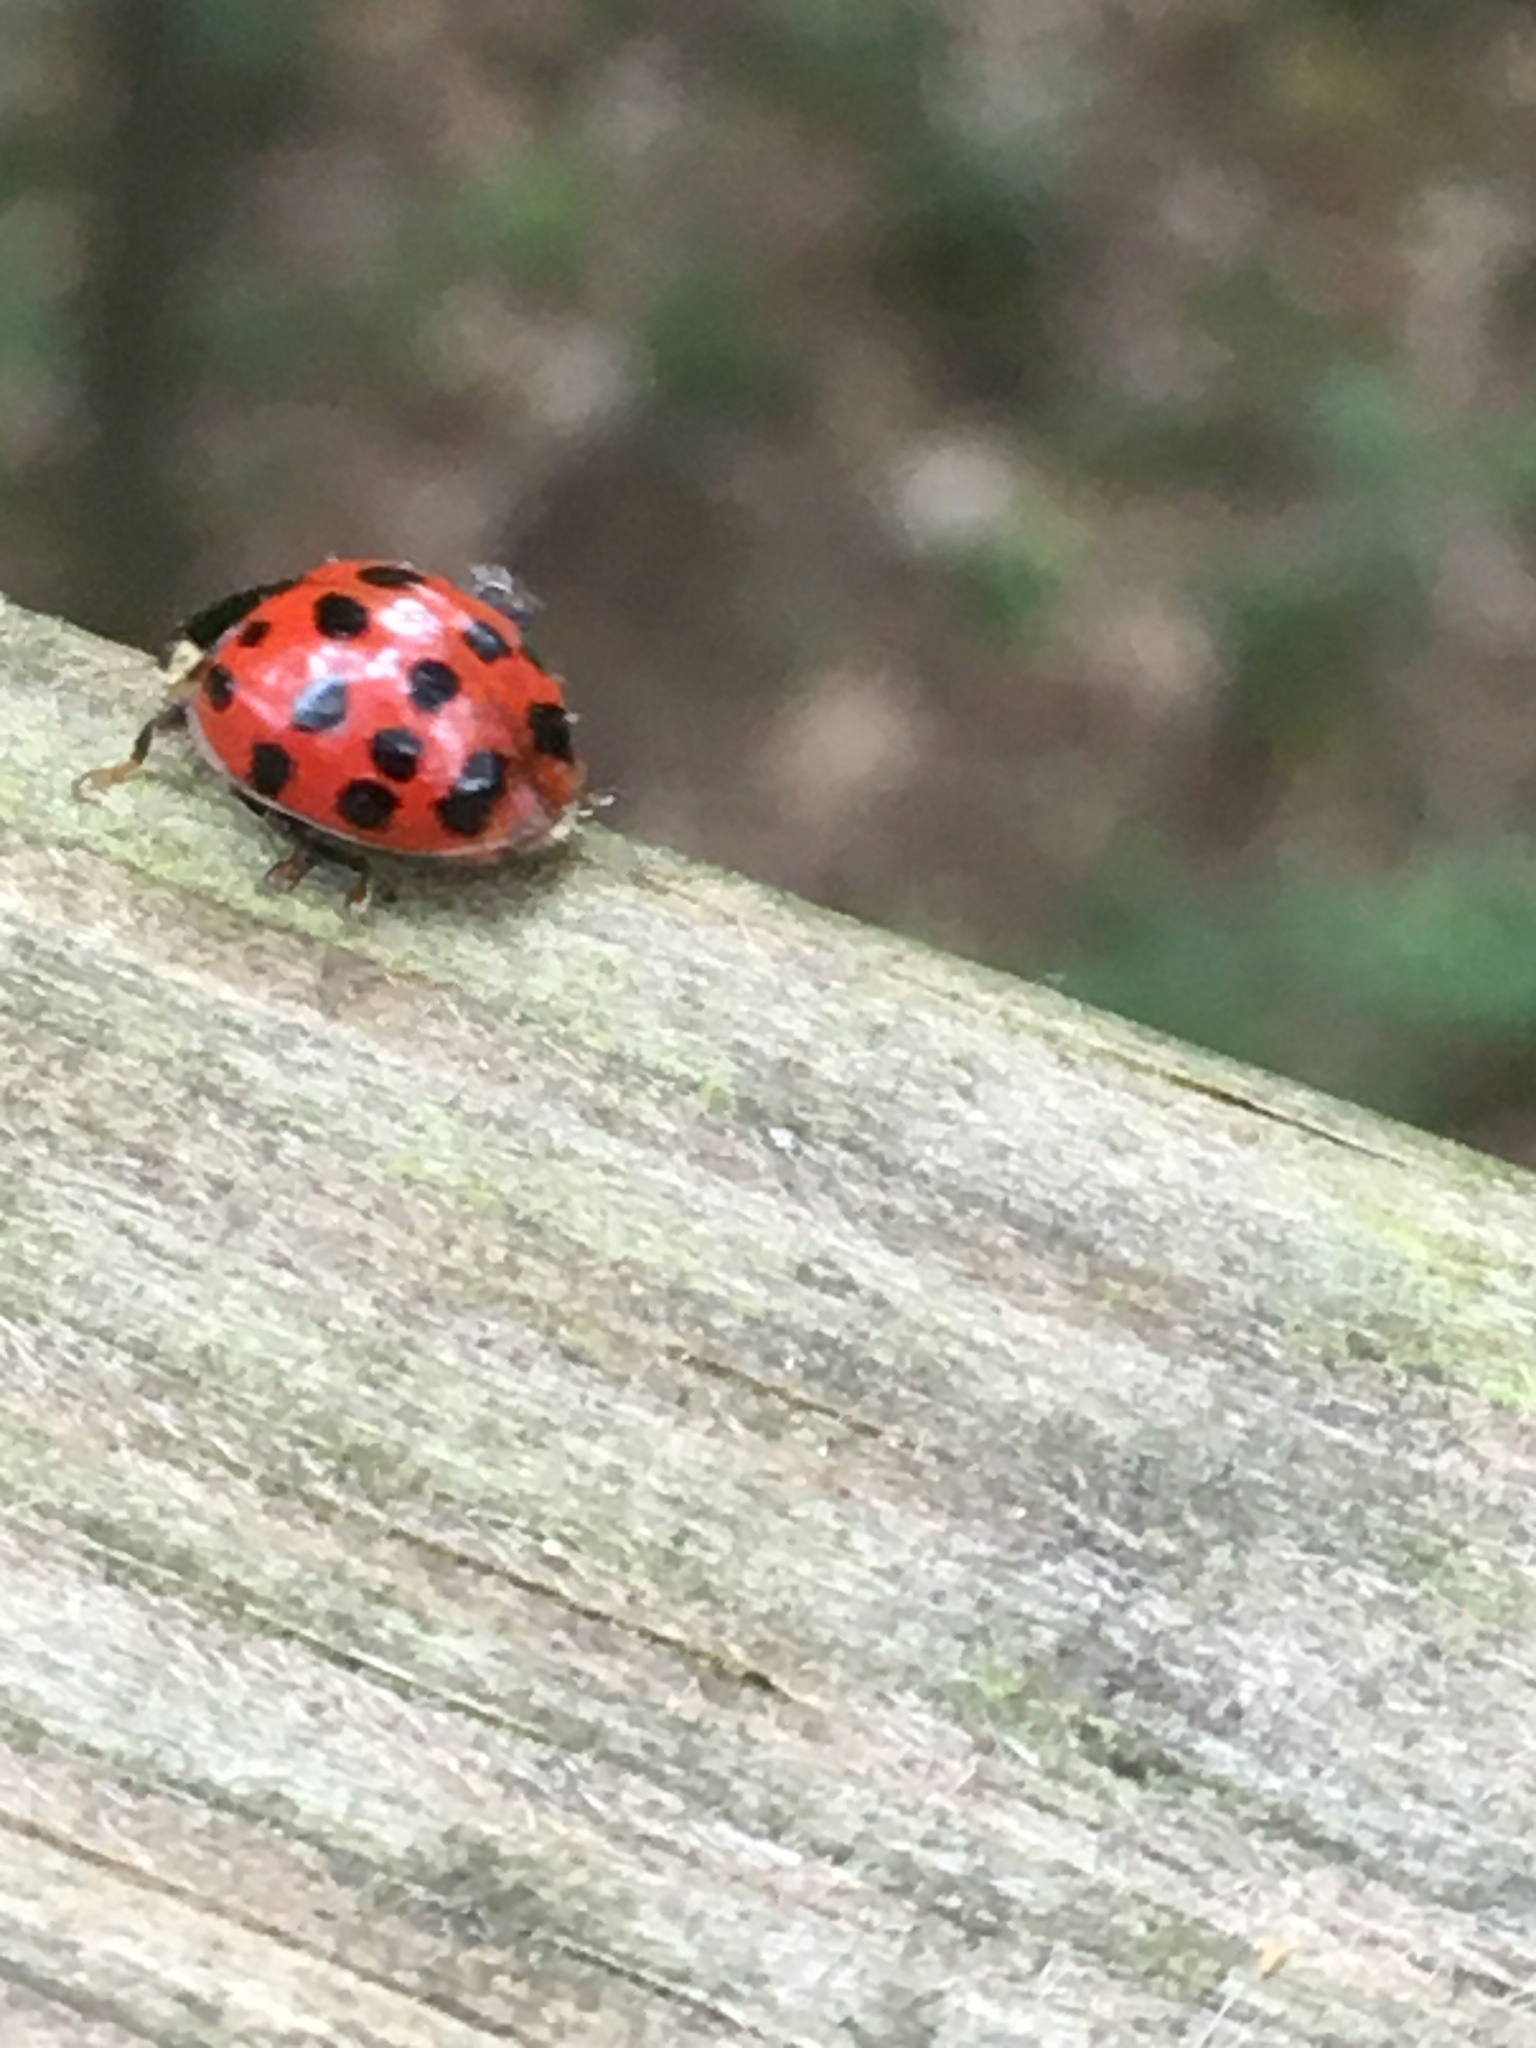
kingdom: Animalia
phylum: Arthropoda
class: Insecta
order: Coleoptera
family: Coccinellidae
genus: Harmonia
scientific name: Harmonia axyridis
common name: Harlequin ladybird
